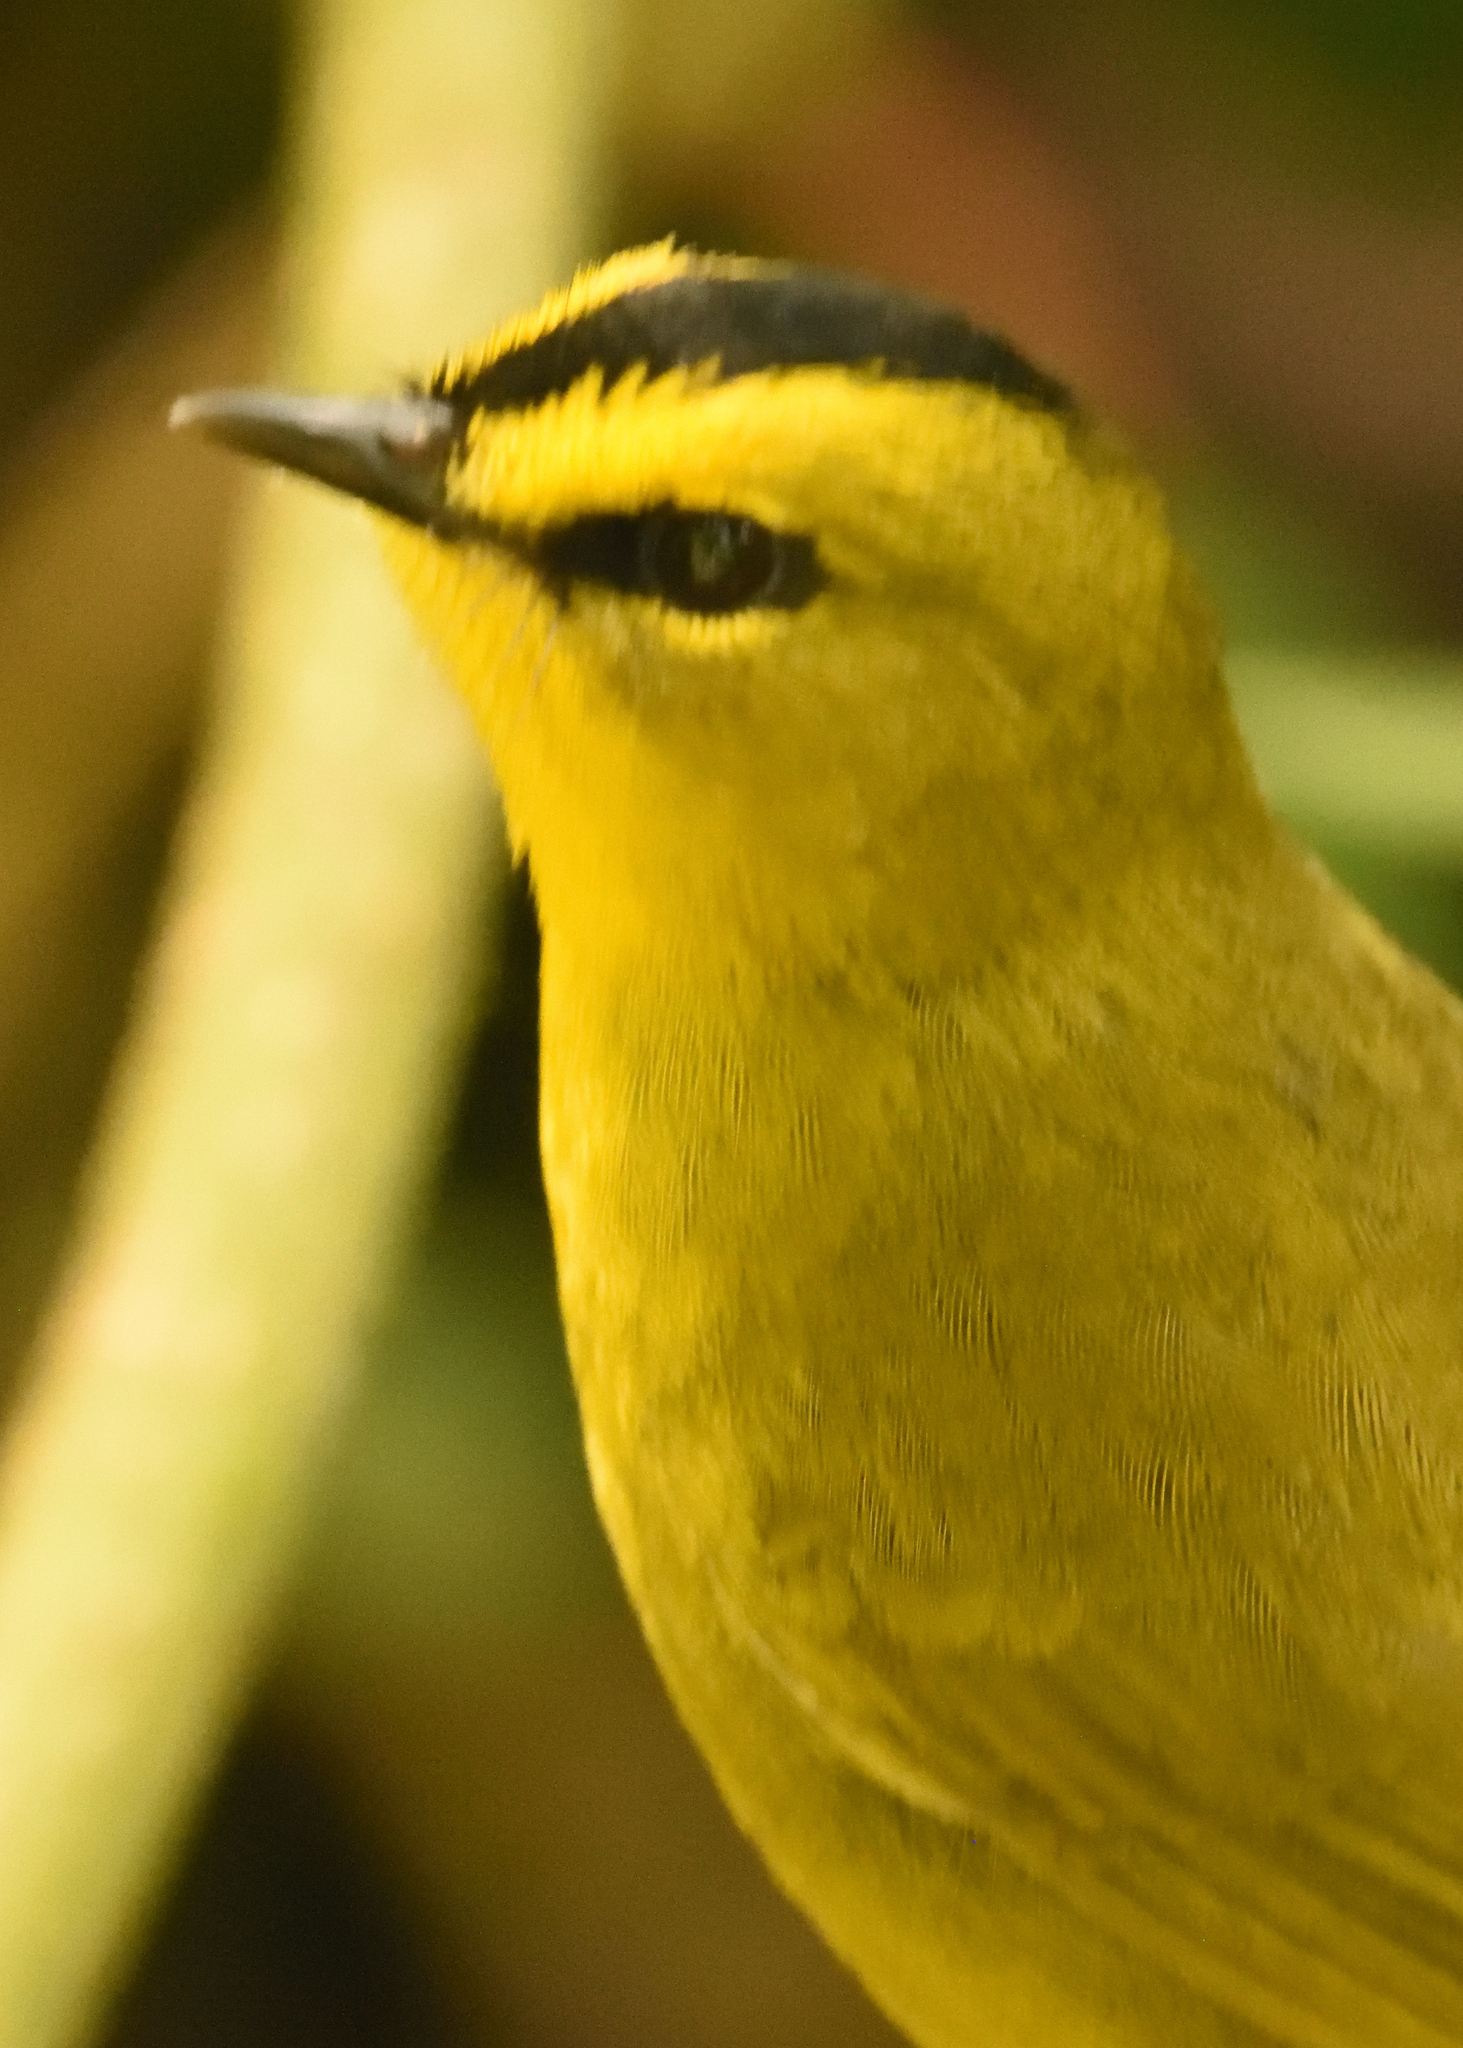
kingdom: Animalia
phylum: Chordata
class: Aves
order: Passeriformes
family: Parulidae
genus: Myiothlypis
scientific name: Myiothlypis nigrocristata
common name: Black-crested warbler
